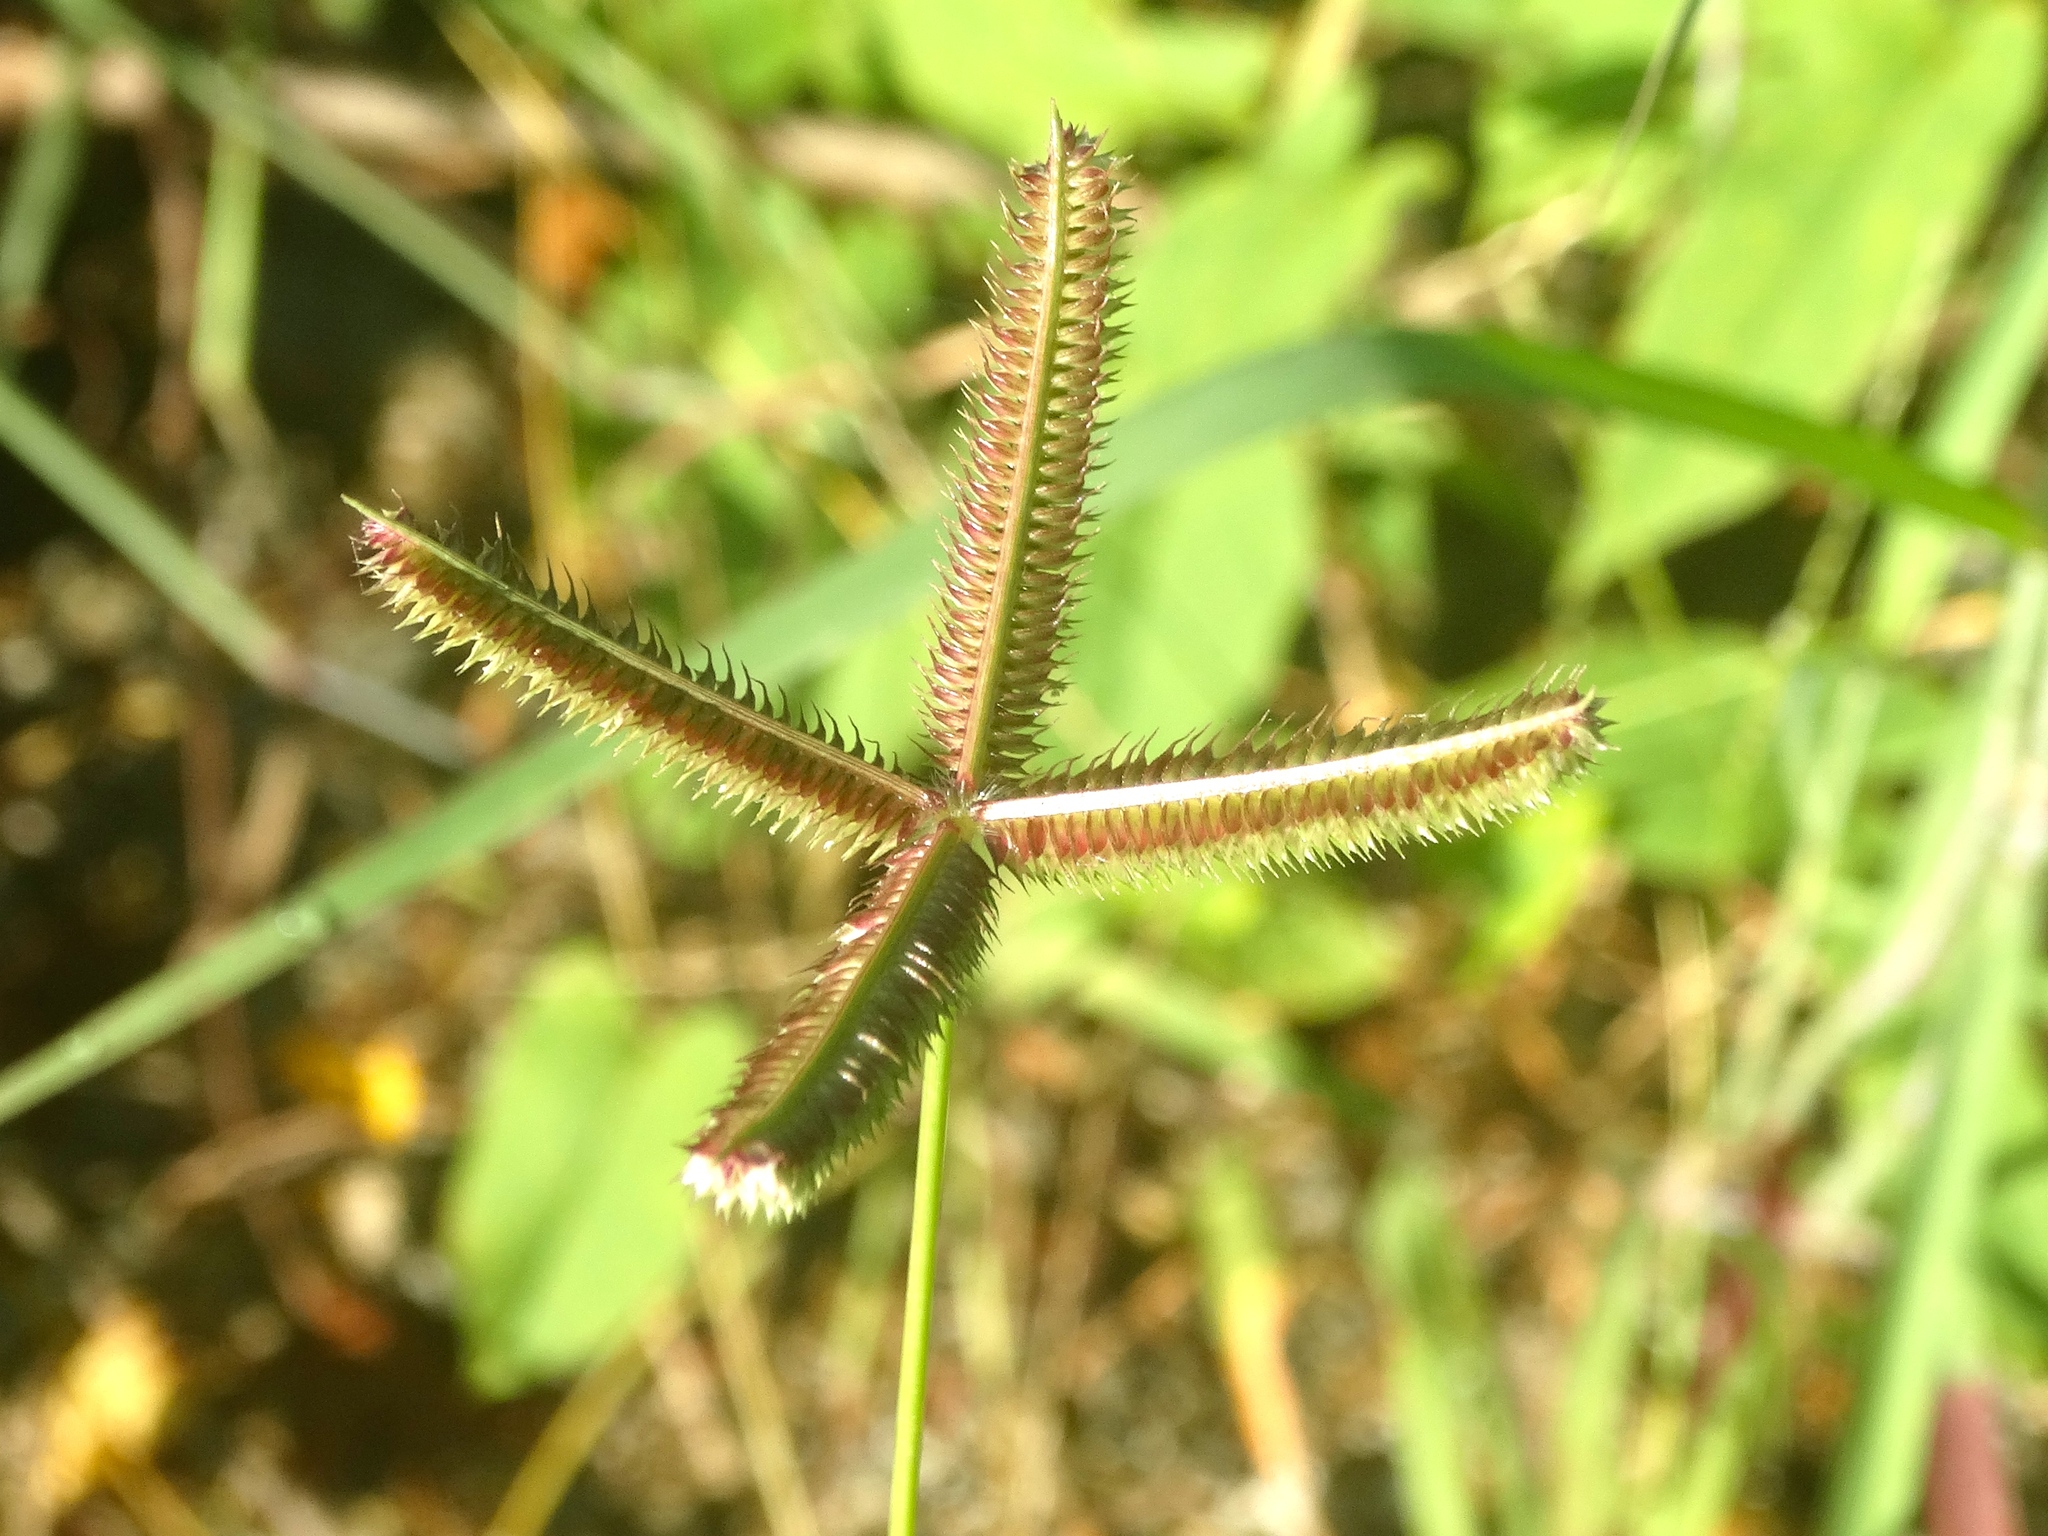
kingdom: Plantae
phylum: Tracheophyta
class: Liliopsida
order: Poales
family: Poaceae
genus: Dactyloctenium
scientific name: Dactyloctenium aegyptium
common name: Egyptian grass
